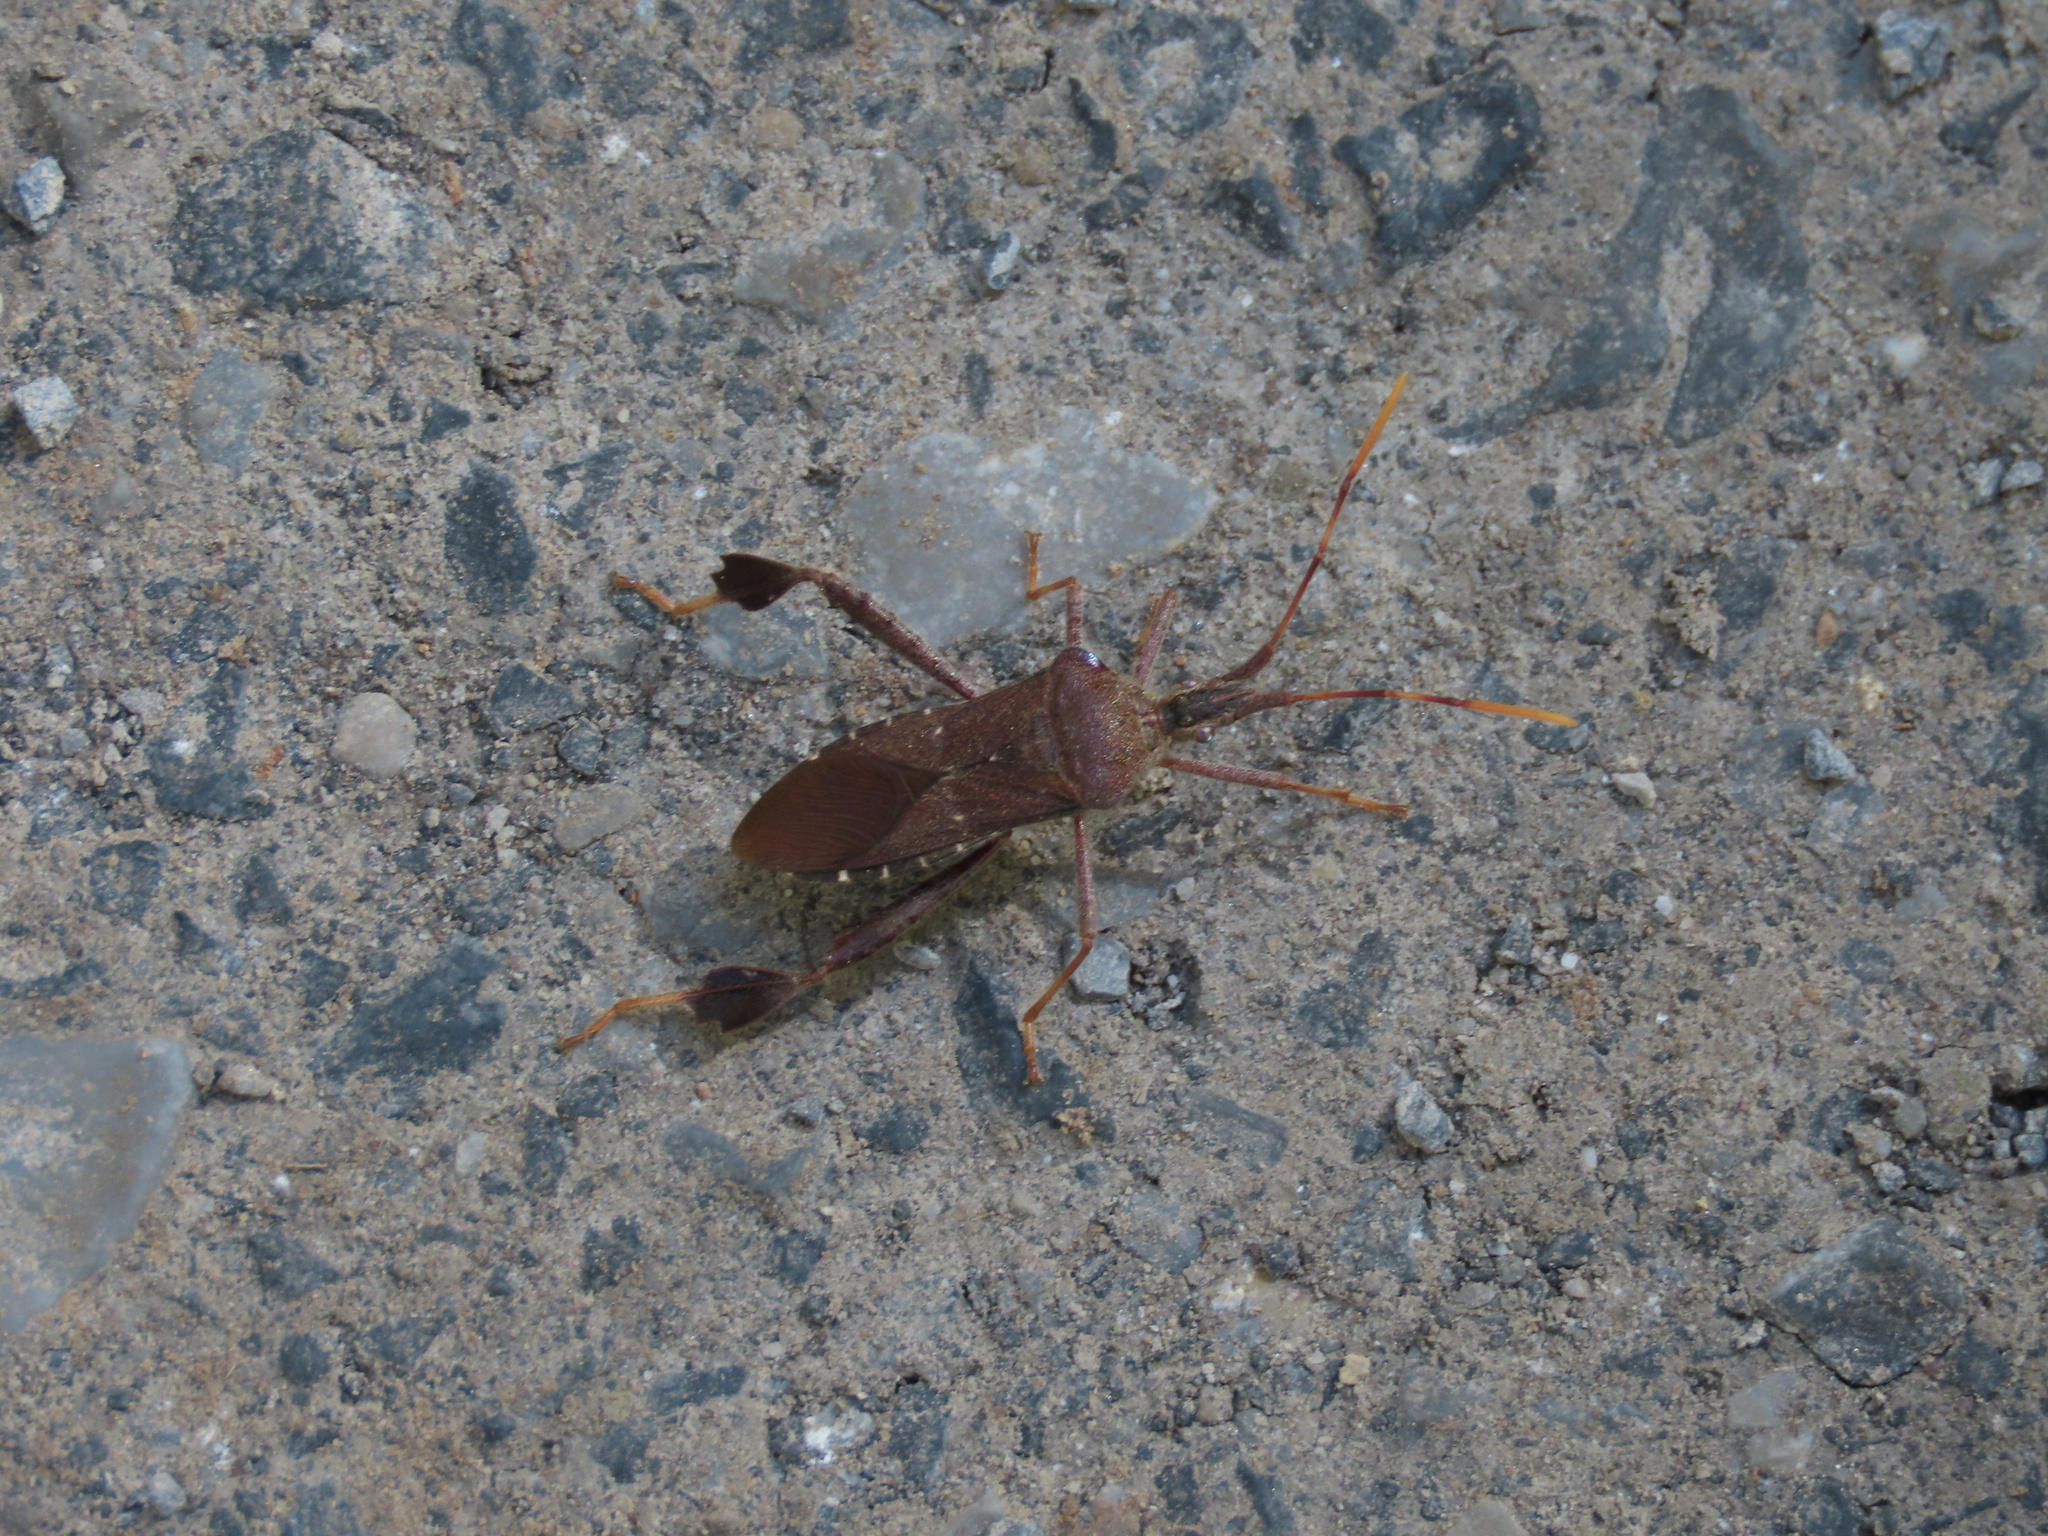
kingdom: Animalia
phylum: Arthropoda
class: Insecta
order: Hemiptera
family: Coreidae
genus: Leptoglossus
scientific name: Leptoglossus oppositus
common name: Northern leaf-footed bug
